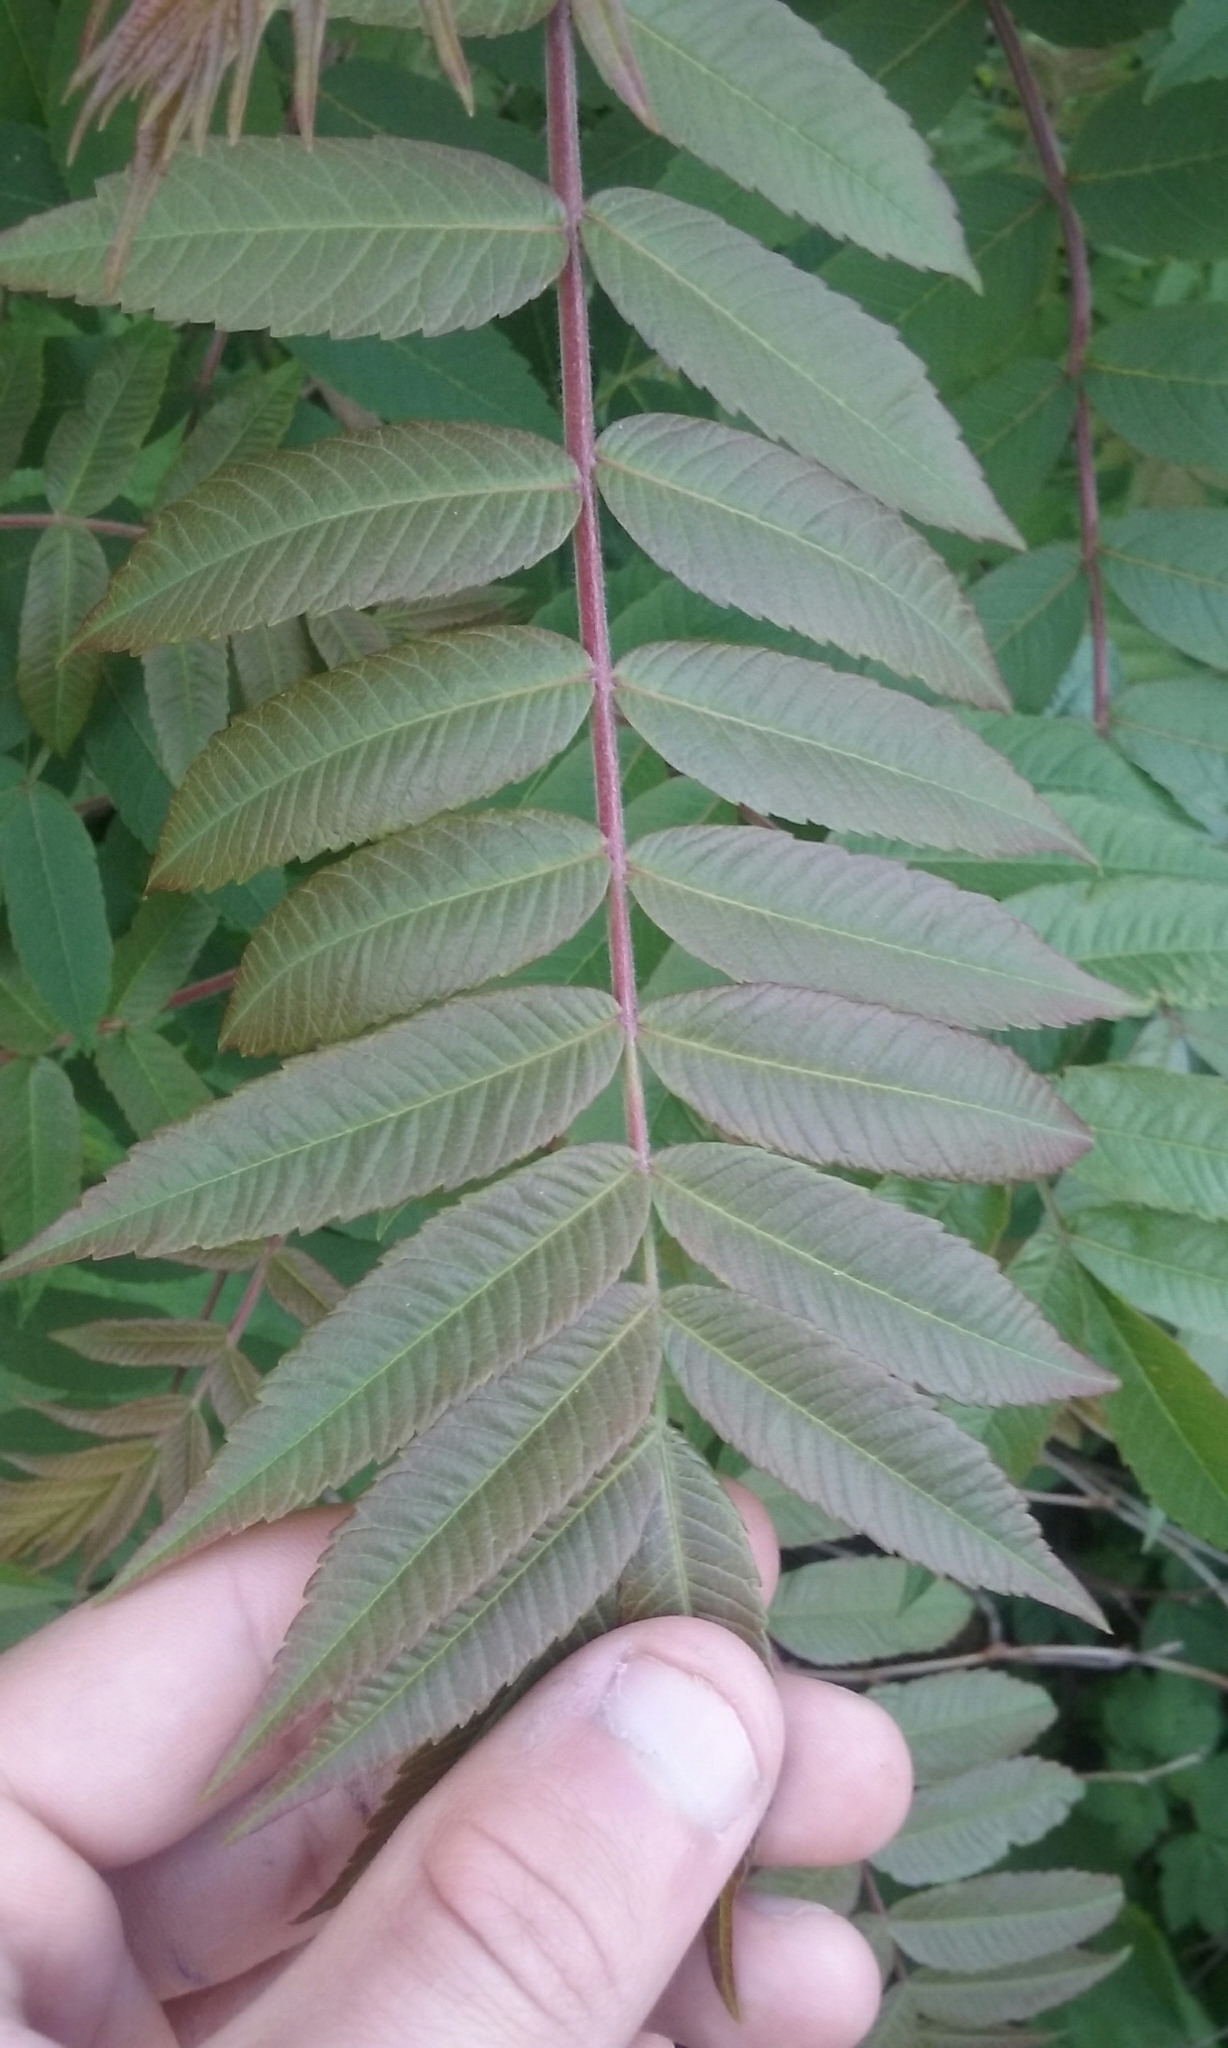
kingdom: Plantae
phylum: Tracheophyta
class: Magnoliopsida
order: Sapindales
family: Anacardiaceae
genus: Rhus
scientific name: Rhus typhina
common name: Staghorn sumac
